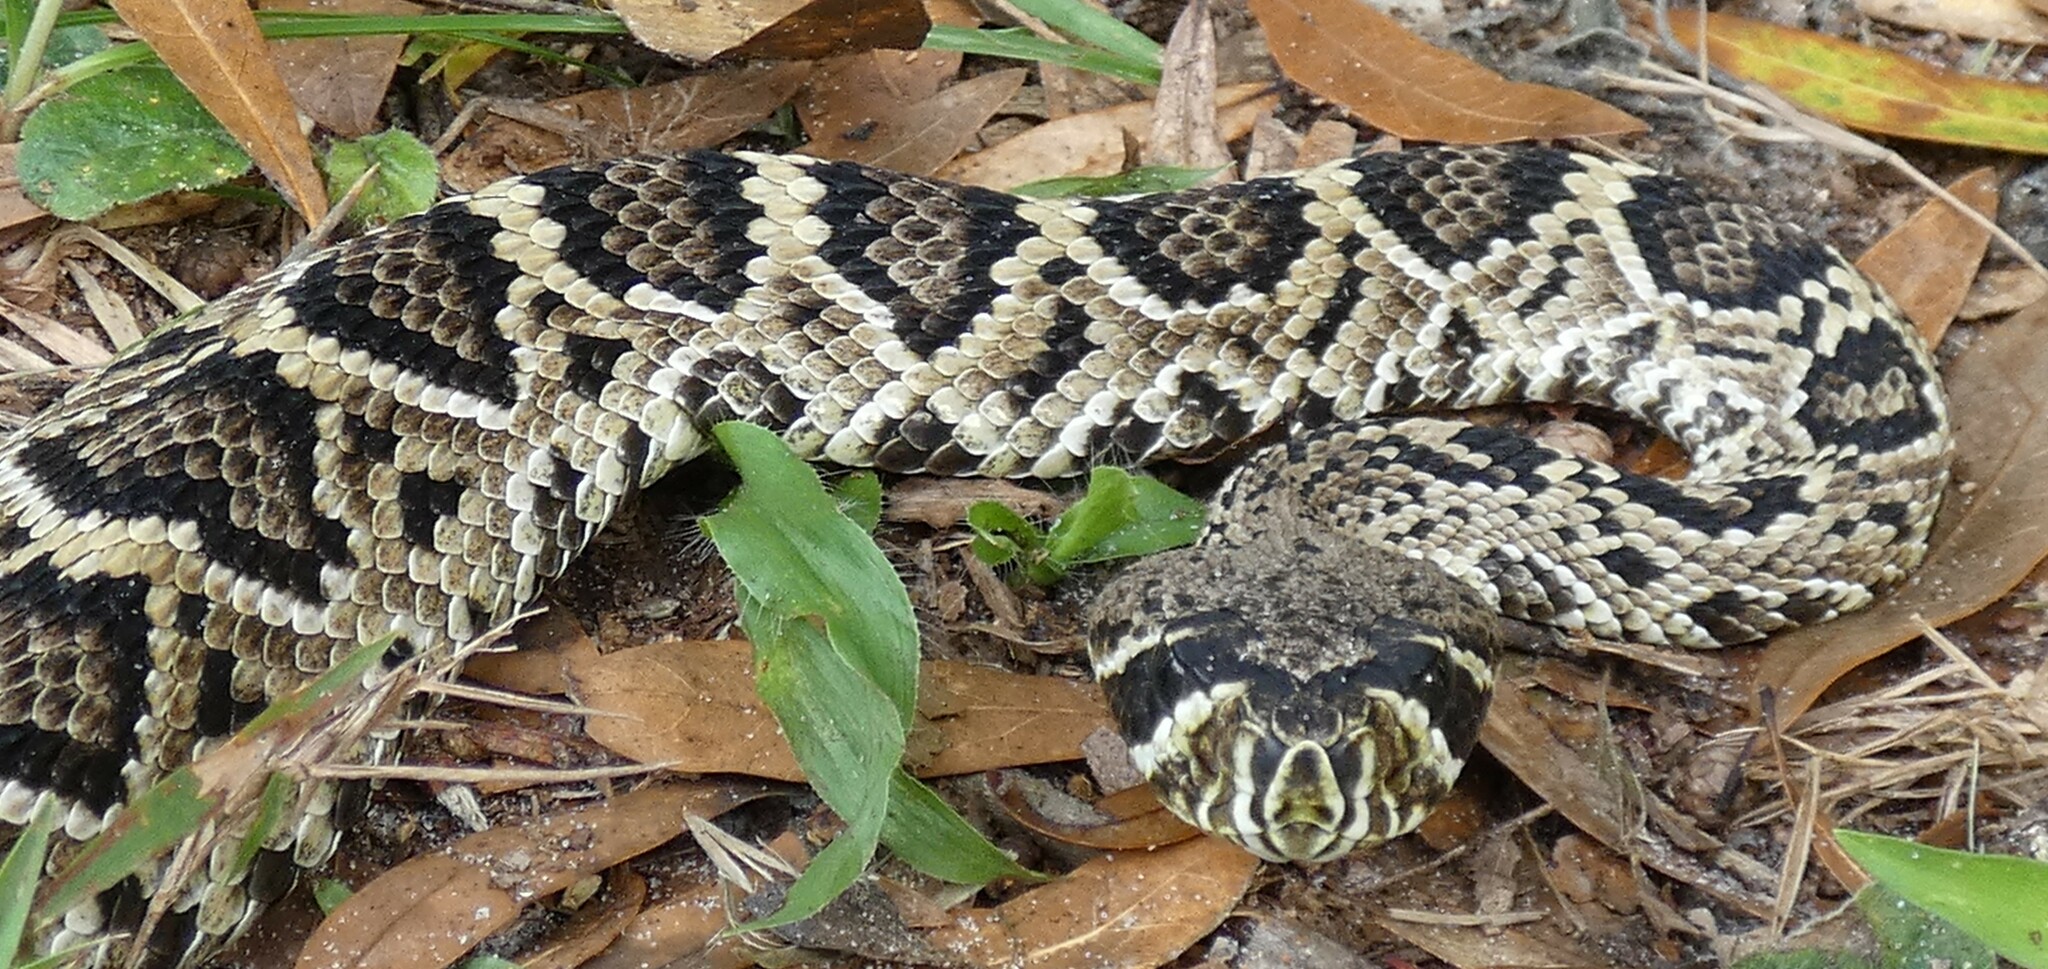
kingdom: Animalia
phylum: Chordata
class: Squamata
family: Viperidae
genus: Crotalus
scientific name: Crotalus adamanteus
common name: Eastern diamondback rattlesnake
